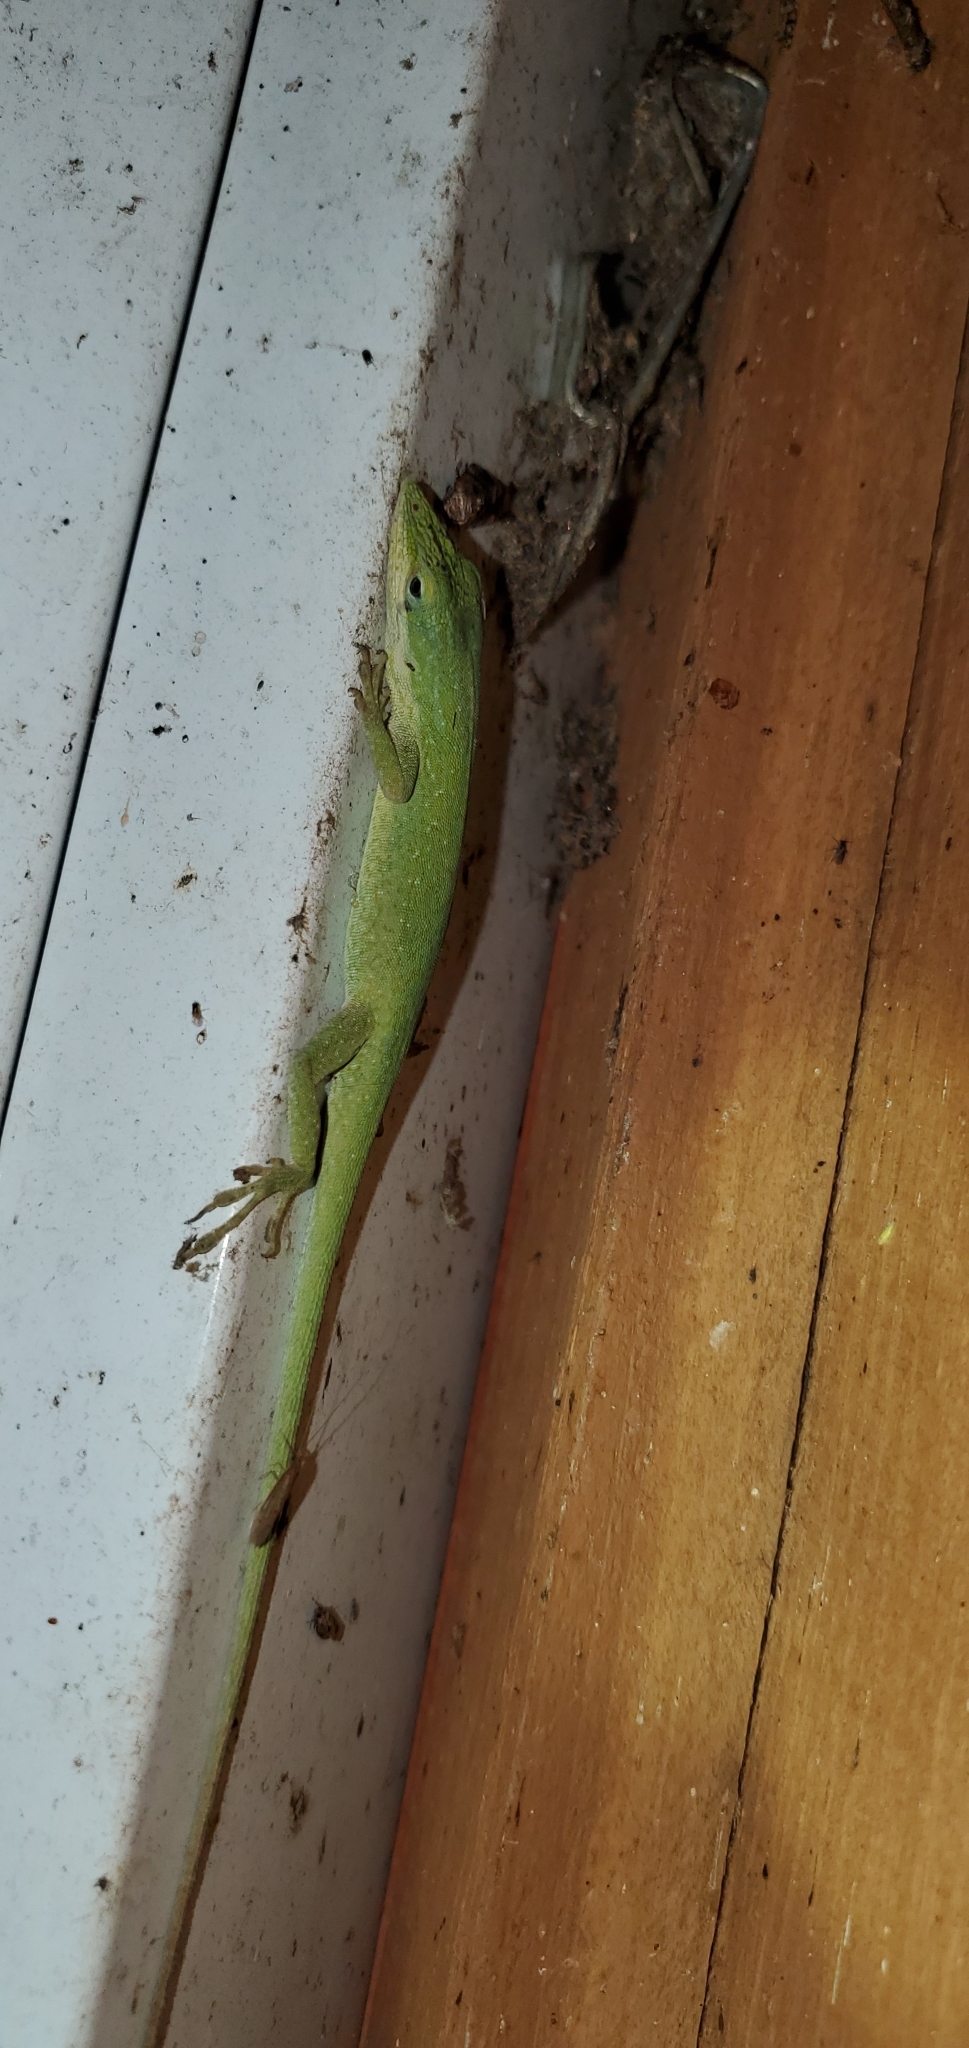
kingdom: Animalia
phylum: Chordata
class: Squamata
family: Dactyloidae
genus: Anolis
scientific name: Anolis carolinensis
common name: Green anole
